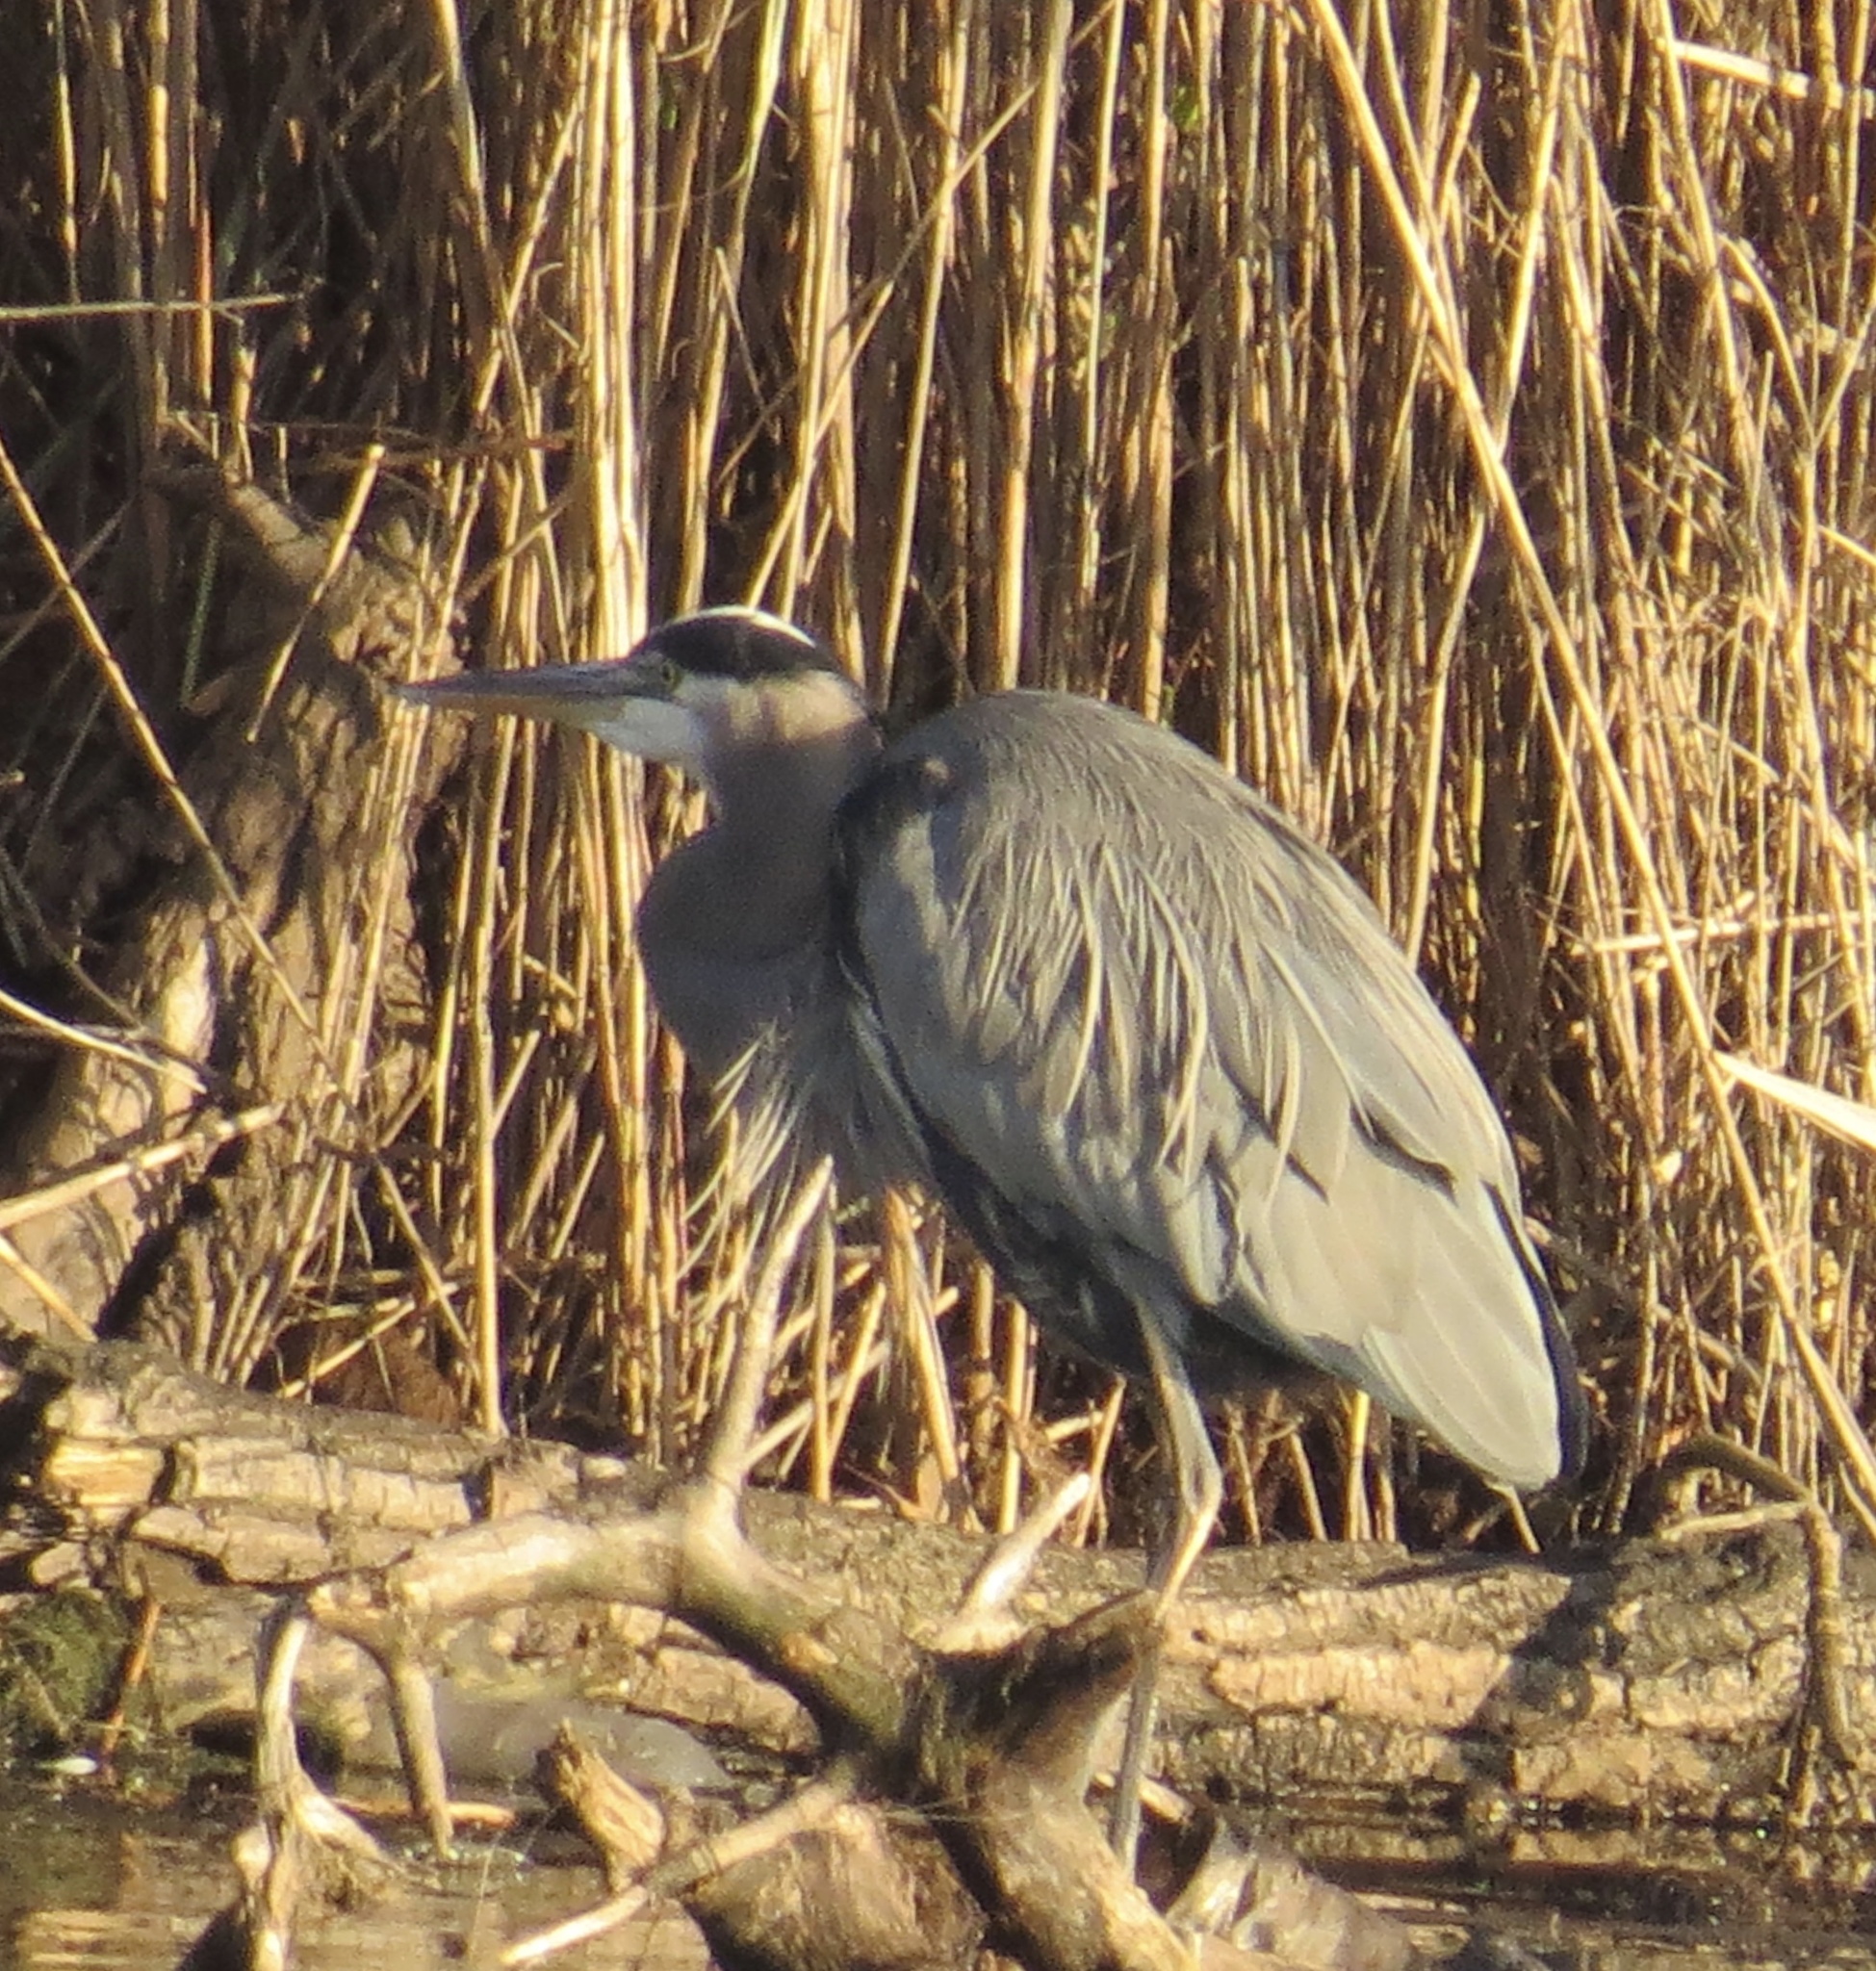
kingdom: Animalia
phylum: Chordata
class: Aves
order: Pelecaniformes
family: Ardeidae
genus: Ardea
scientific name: Ardea herodias
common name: Great blue heron
